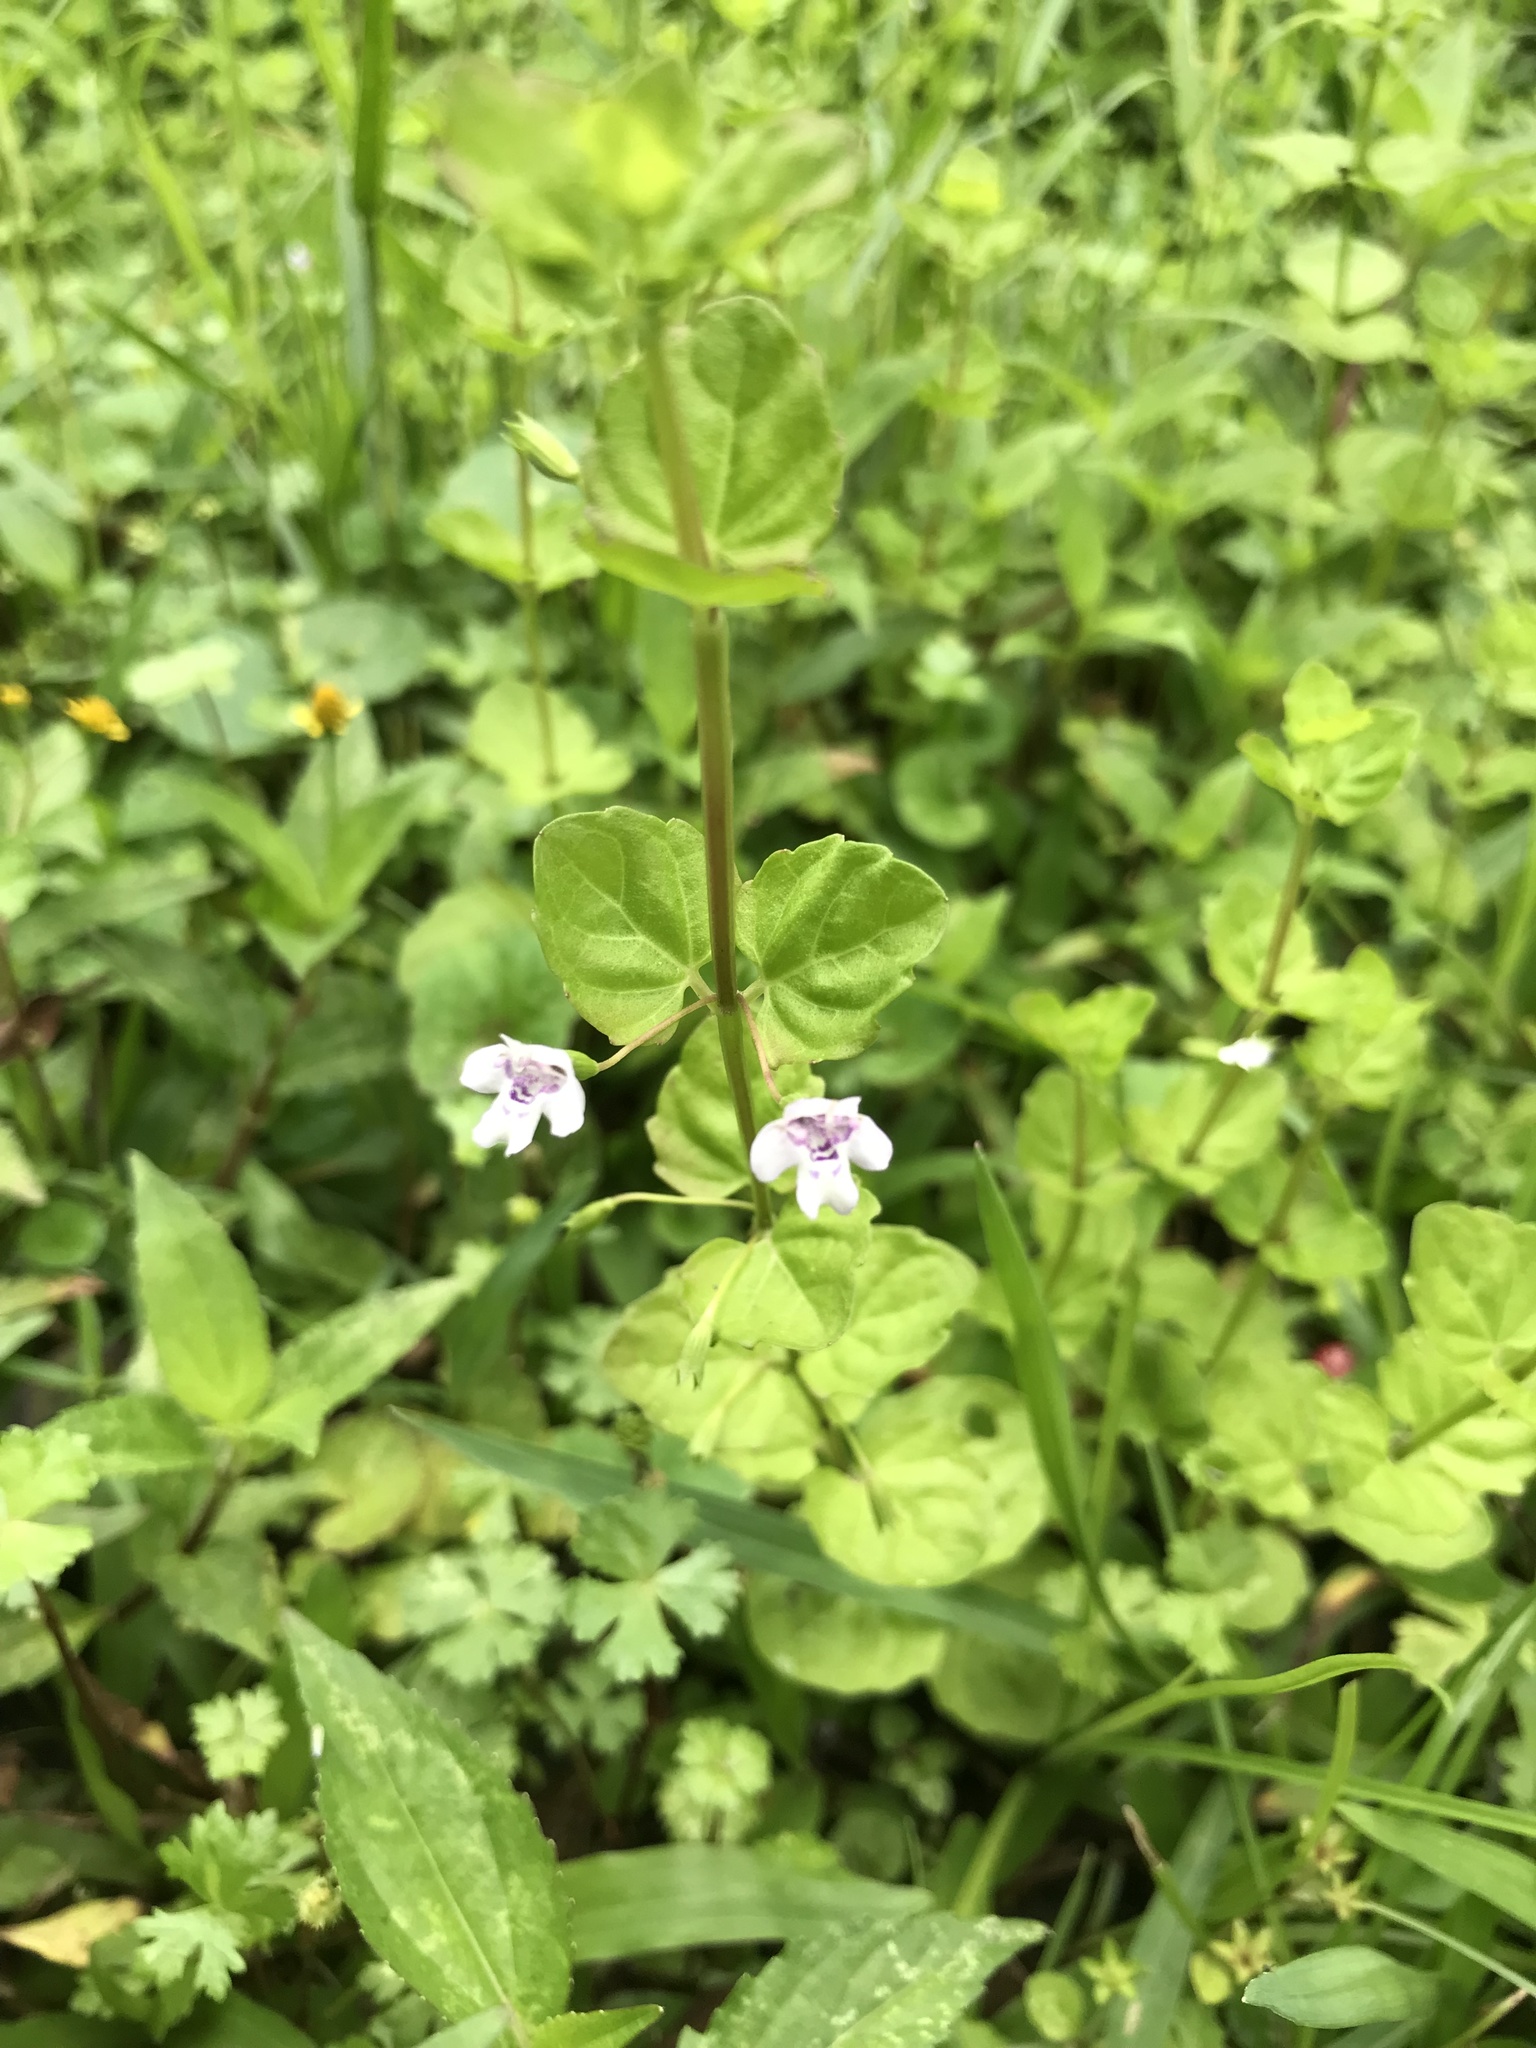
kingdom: Plantae
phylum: Tracheophyta
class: Magnoliopsida
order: Lamiales
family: Lamiaceae
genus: Clinopodium
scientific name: Clinopodium brownei
